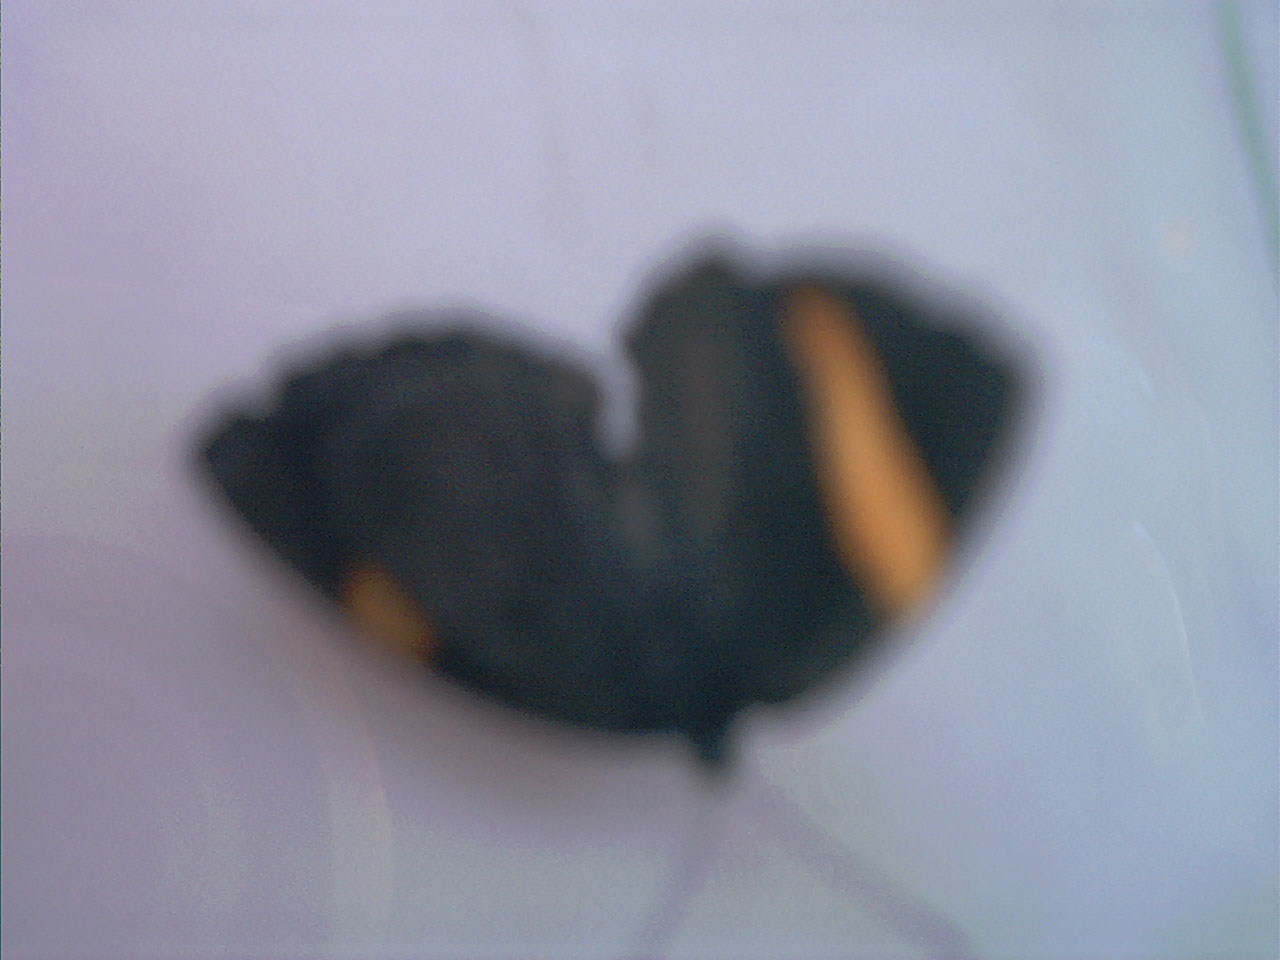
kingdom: Animalia
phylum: Arthropoda
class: Insecta
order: Lepidoptera
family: Riodinidae
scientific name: Riodinidae
